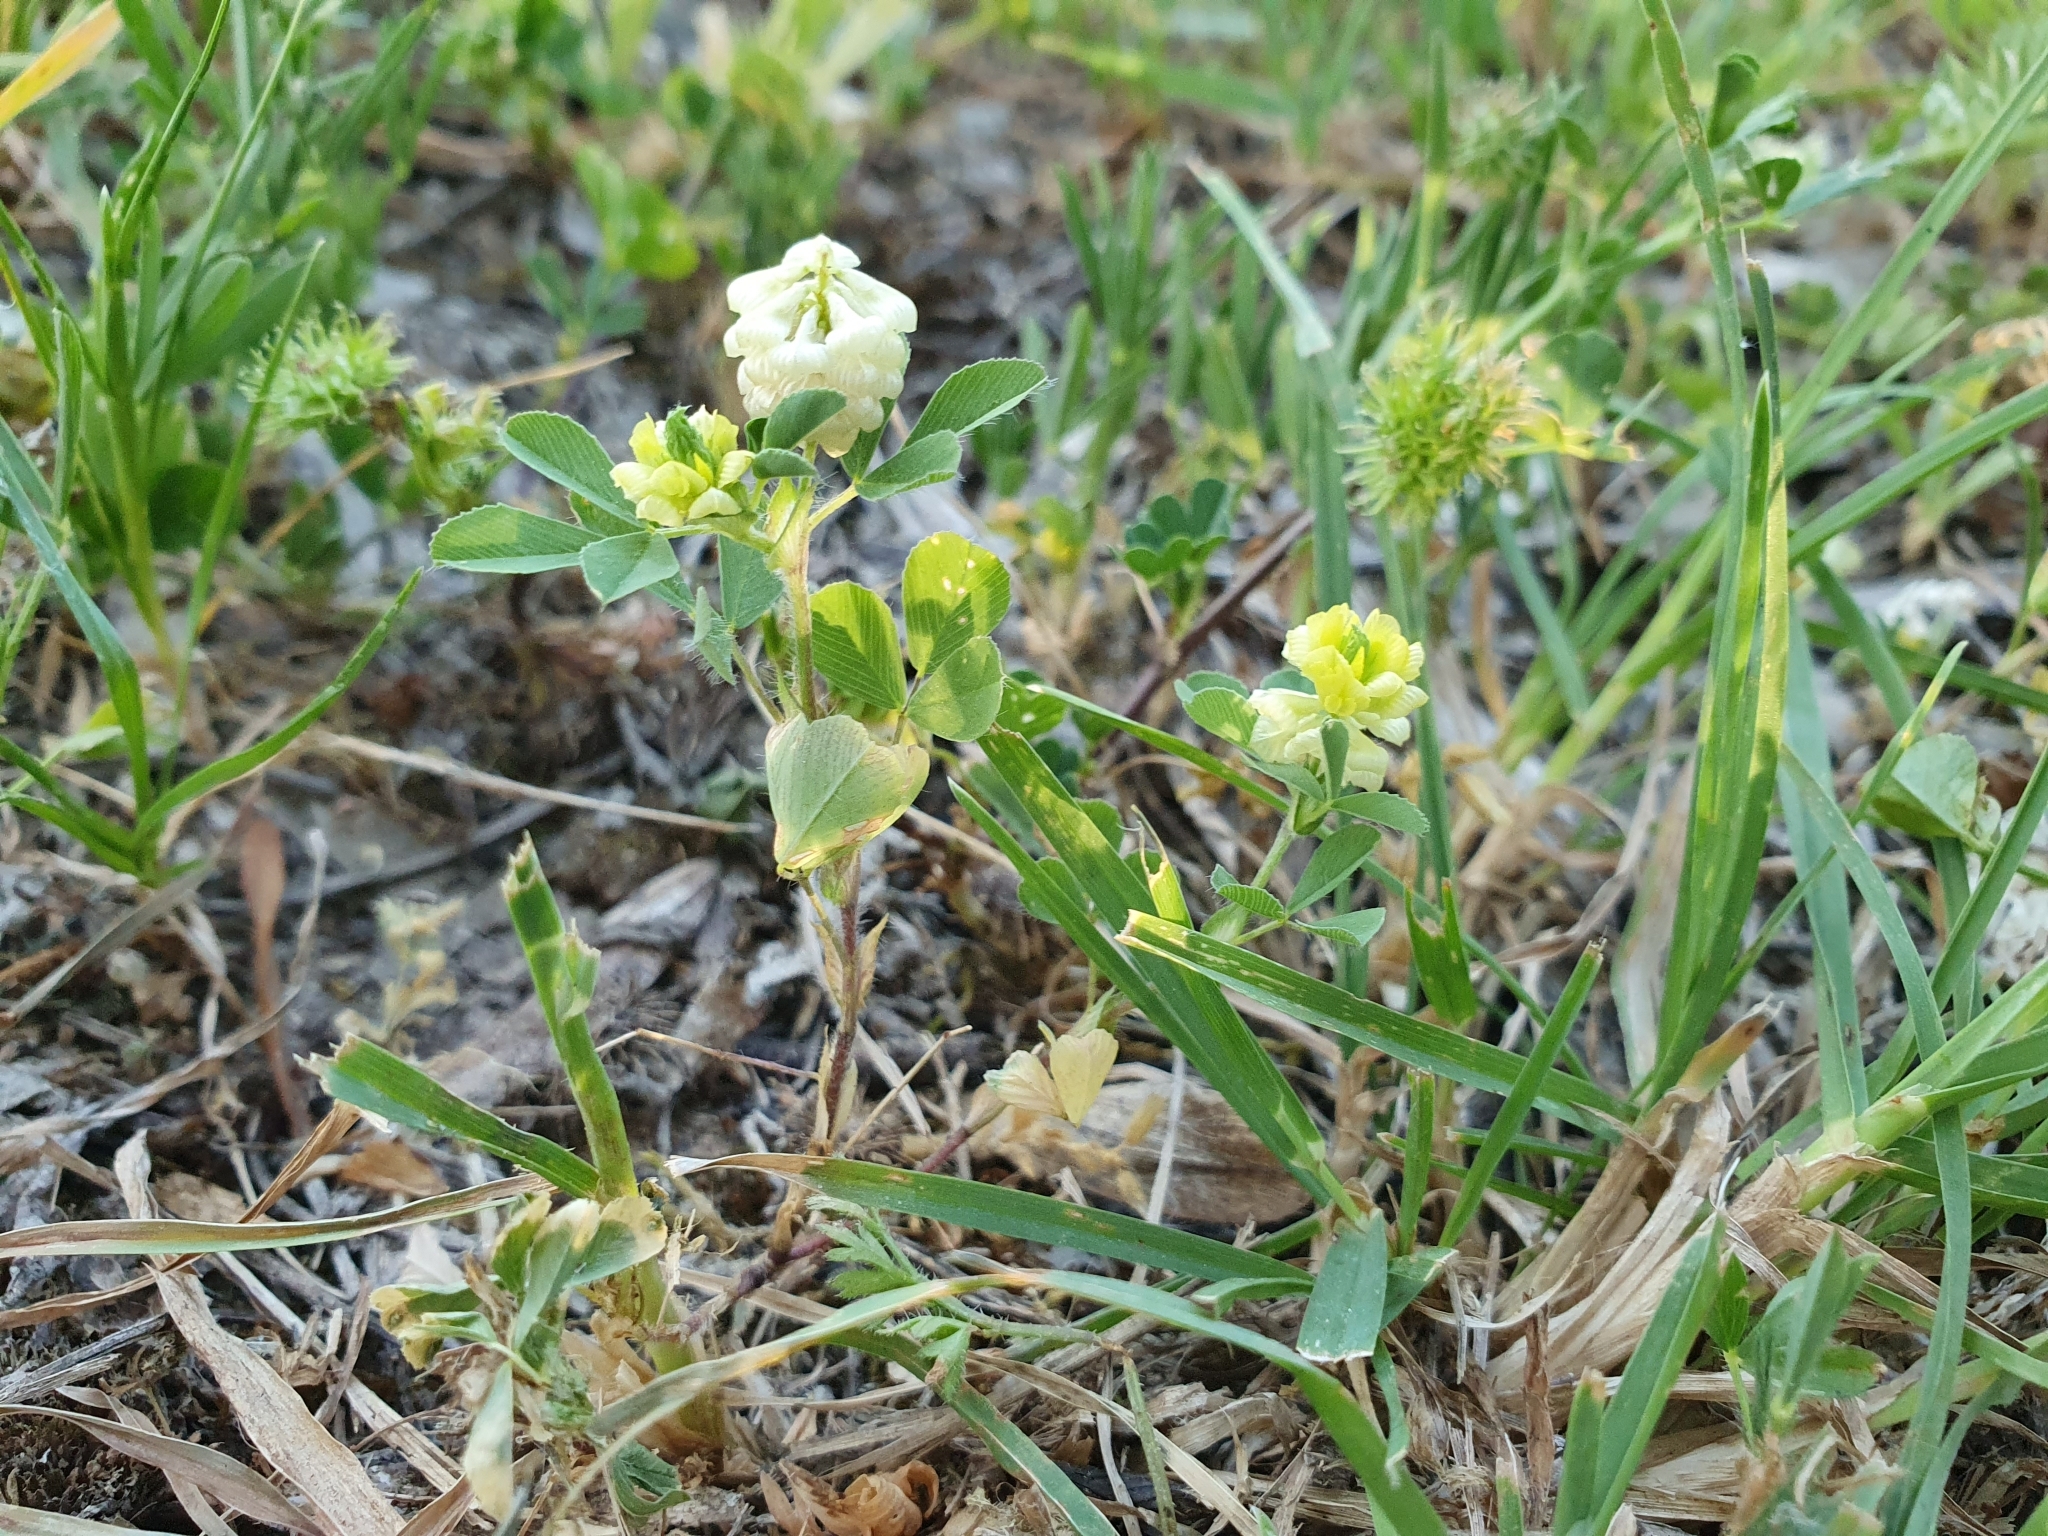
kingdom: Plantae
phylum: Tracheophyta
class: Magnoliopsida
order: Fabales
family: Fabaceae
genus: Trifolium
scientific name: Trifolium campestre
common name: Field clover
